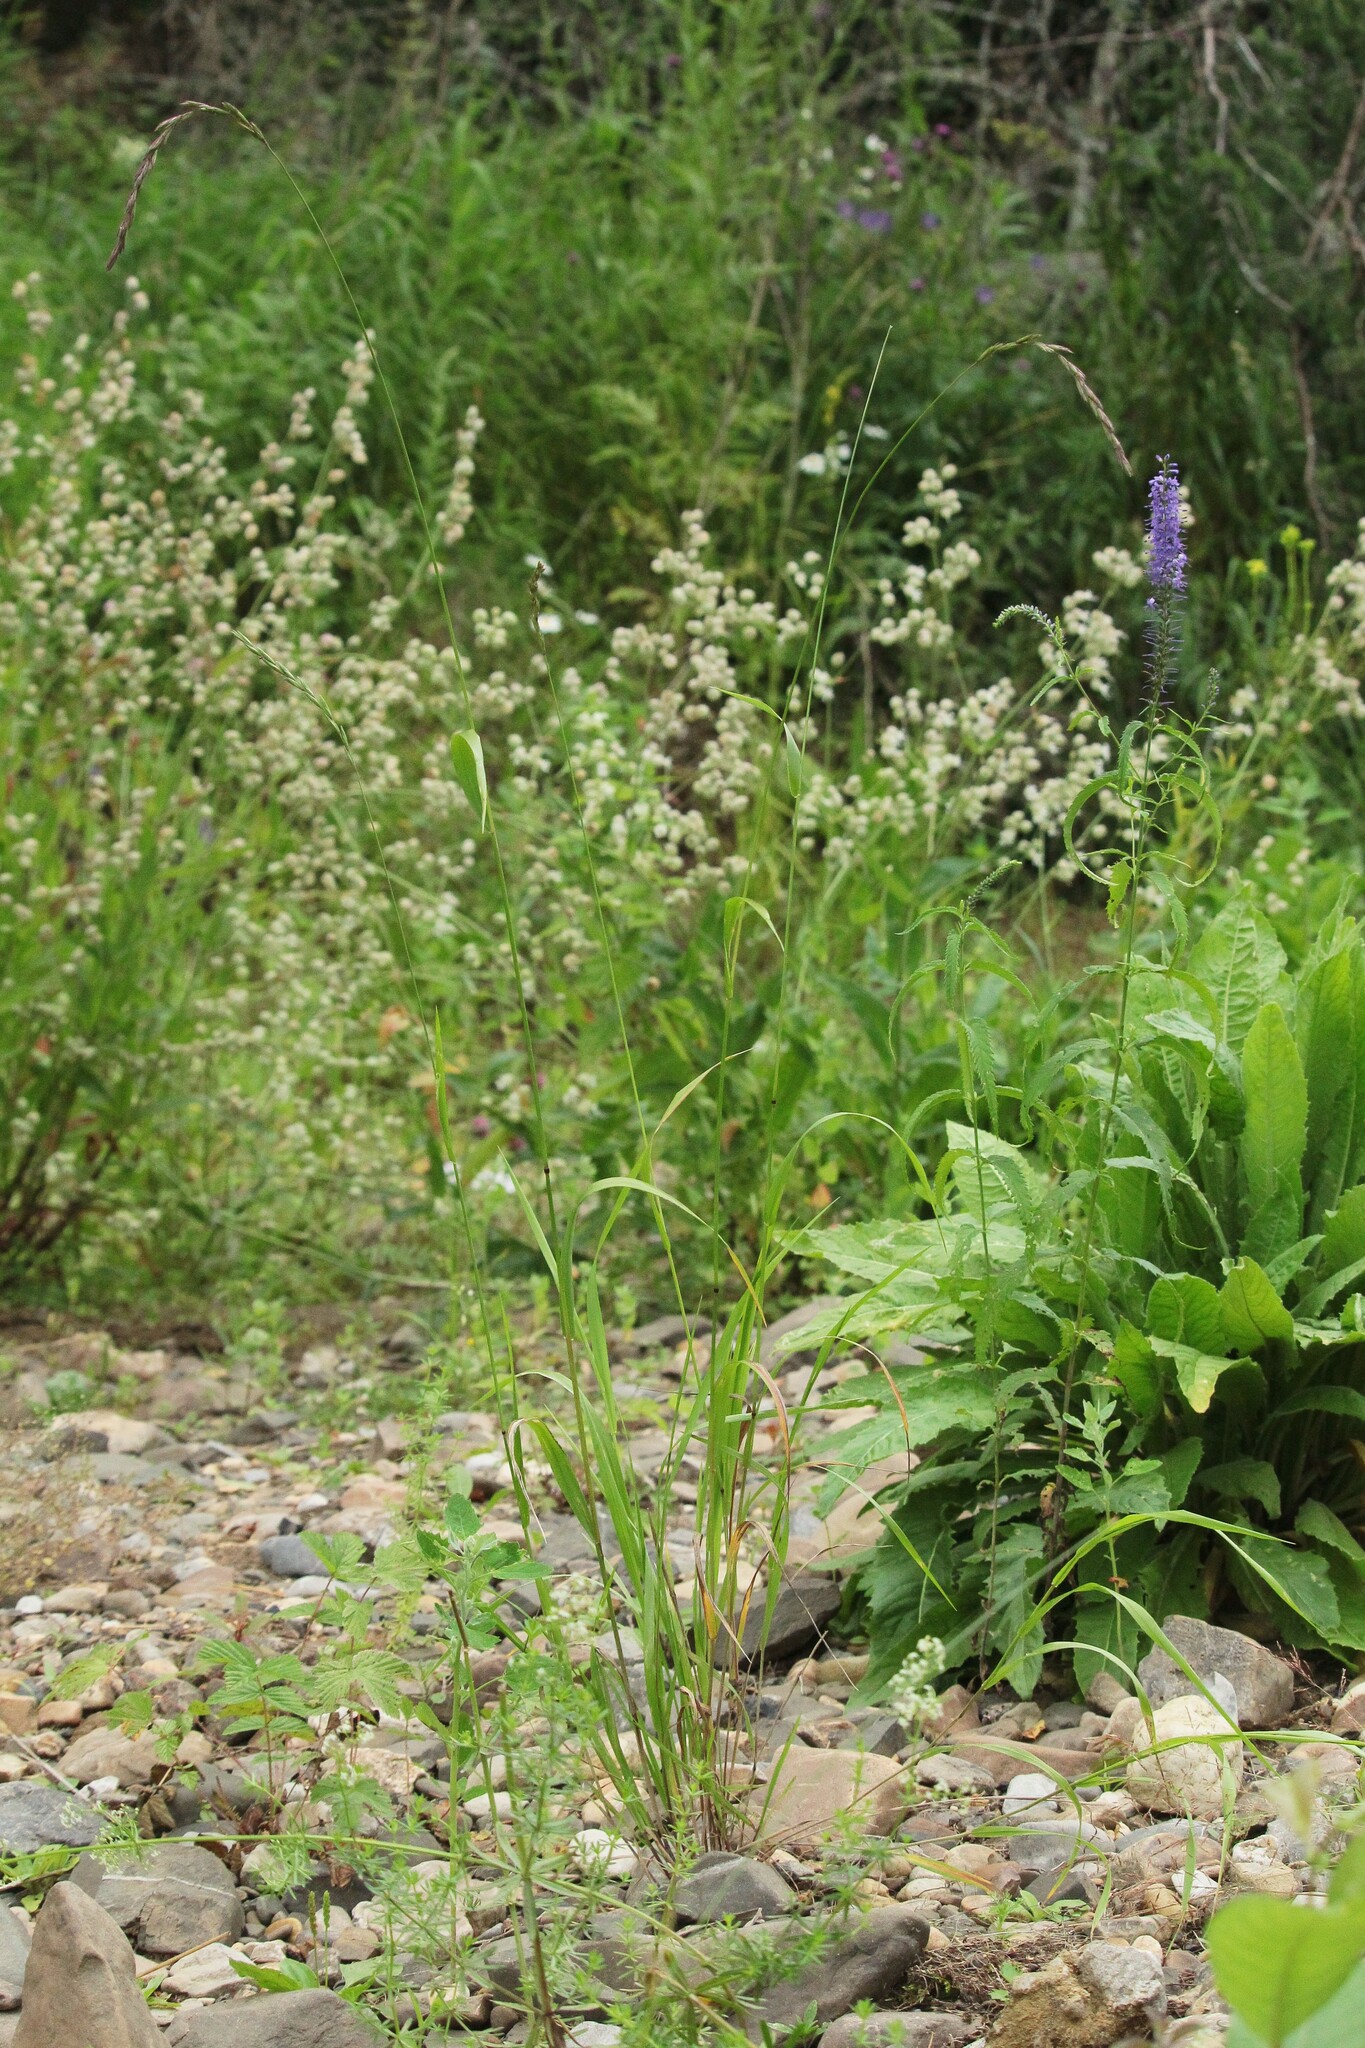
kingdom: Plantae
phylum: Tracheophyta
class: Liliopsida
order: Poales
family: Poaceae
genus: Elymus
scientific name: Elymus fibrosus
